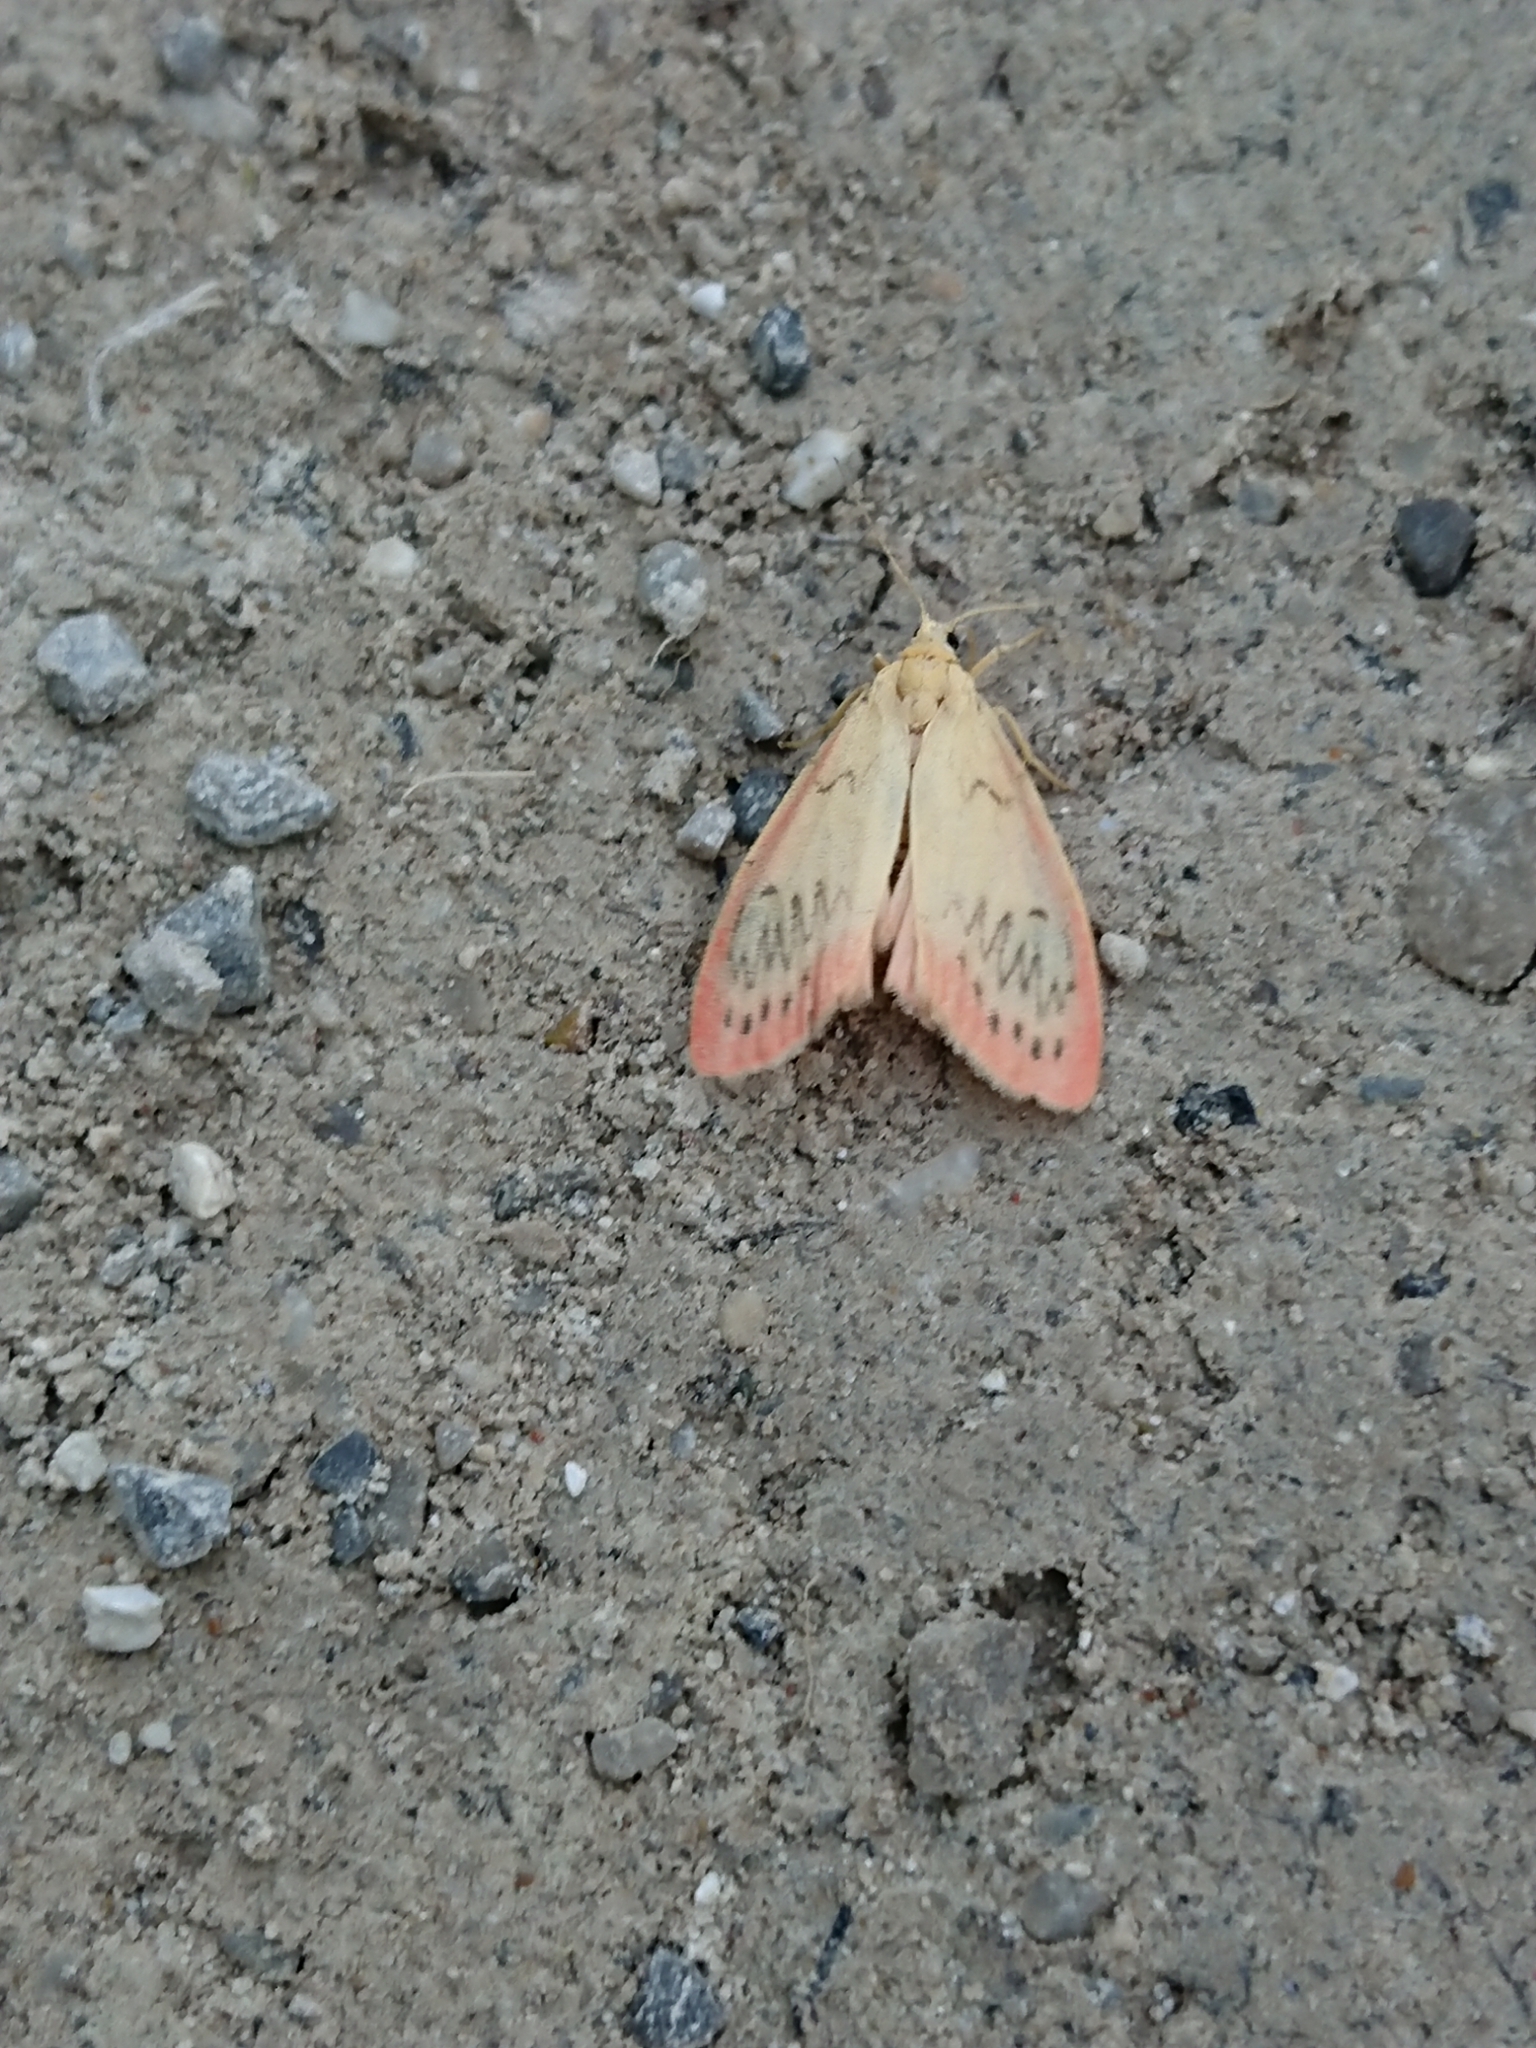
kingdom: Animalia
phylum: Arthropoda
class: Insecta
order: Lepidoptera
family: Erebidae
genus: Miltochrista
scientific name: Miltochrista miniata
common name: Rosy footman
